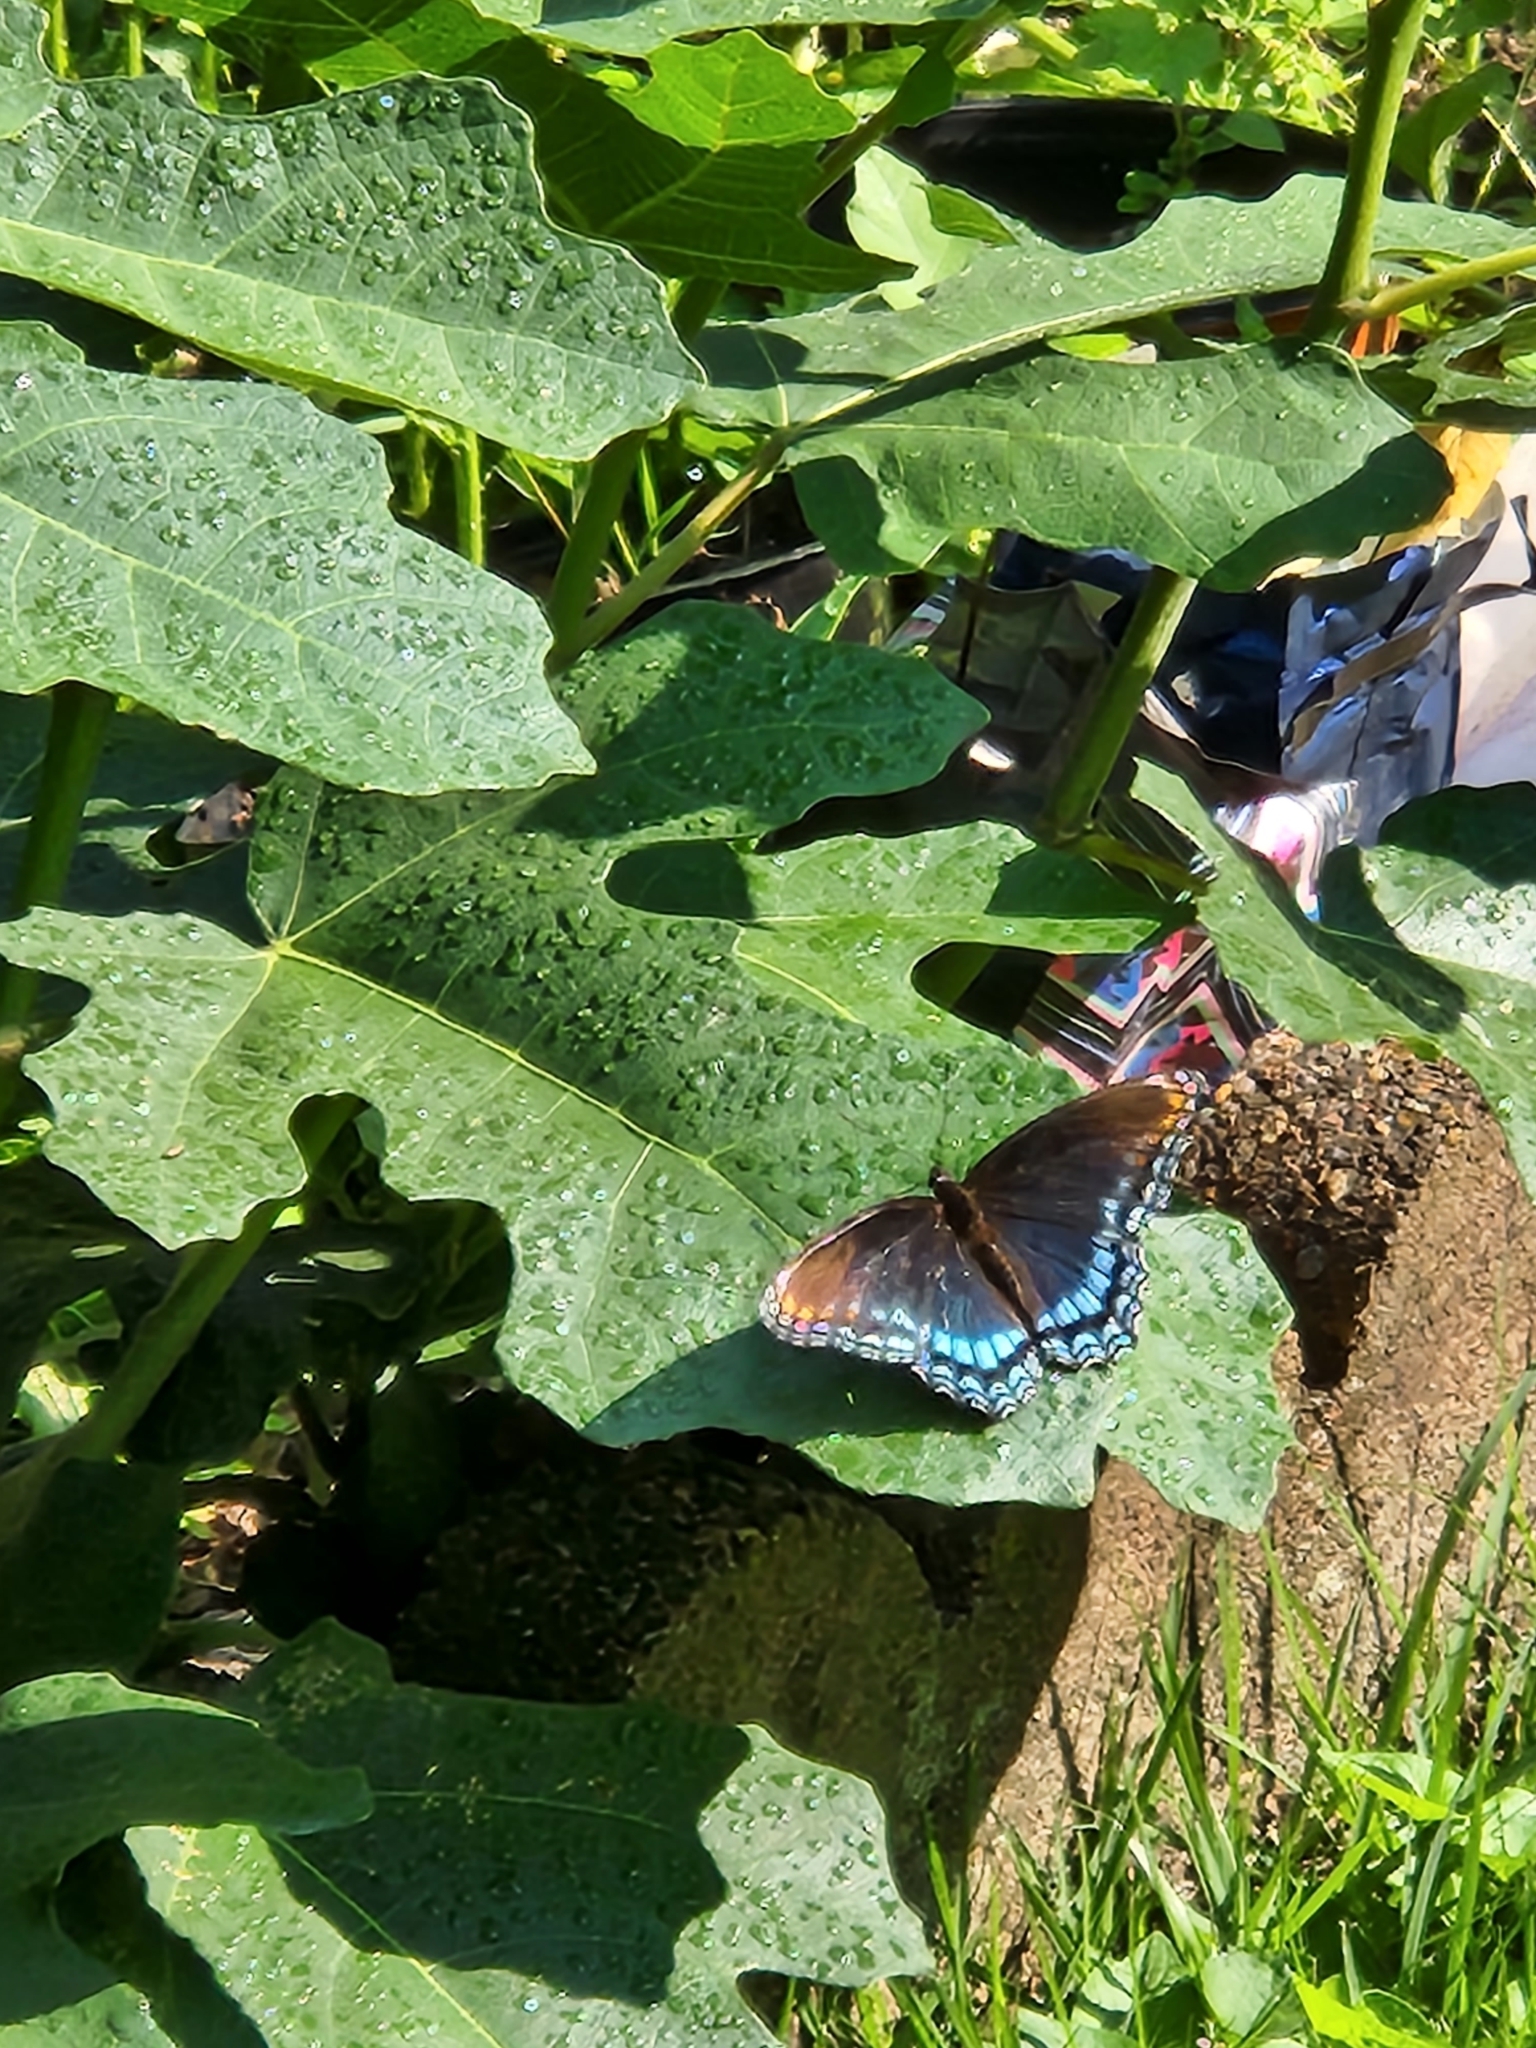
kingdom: Animalia
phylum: Arthropoda
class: Insecta
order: Lepidoptera
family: Nymphalidae
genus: Limenitis
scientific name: Limenitis astyanax
